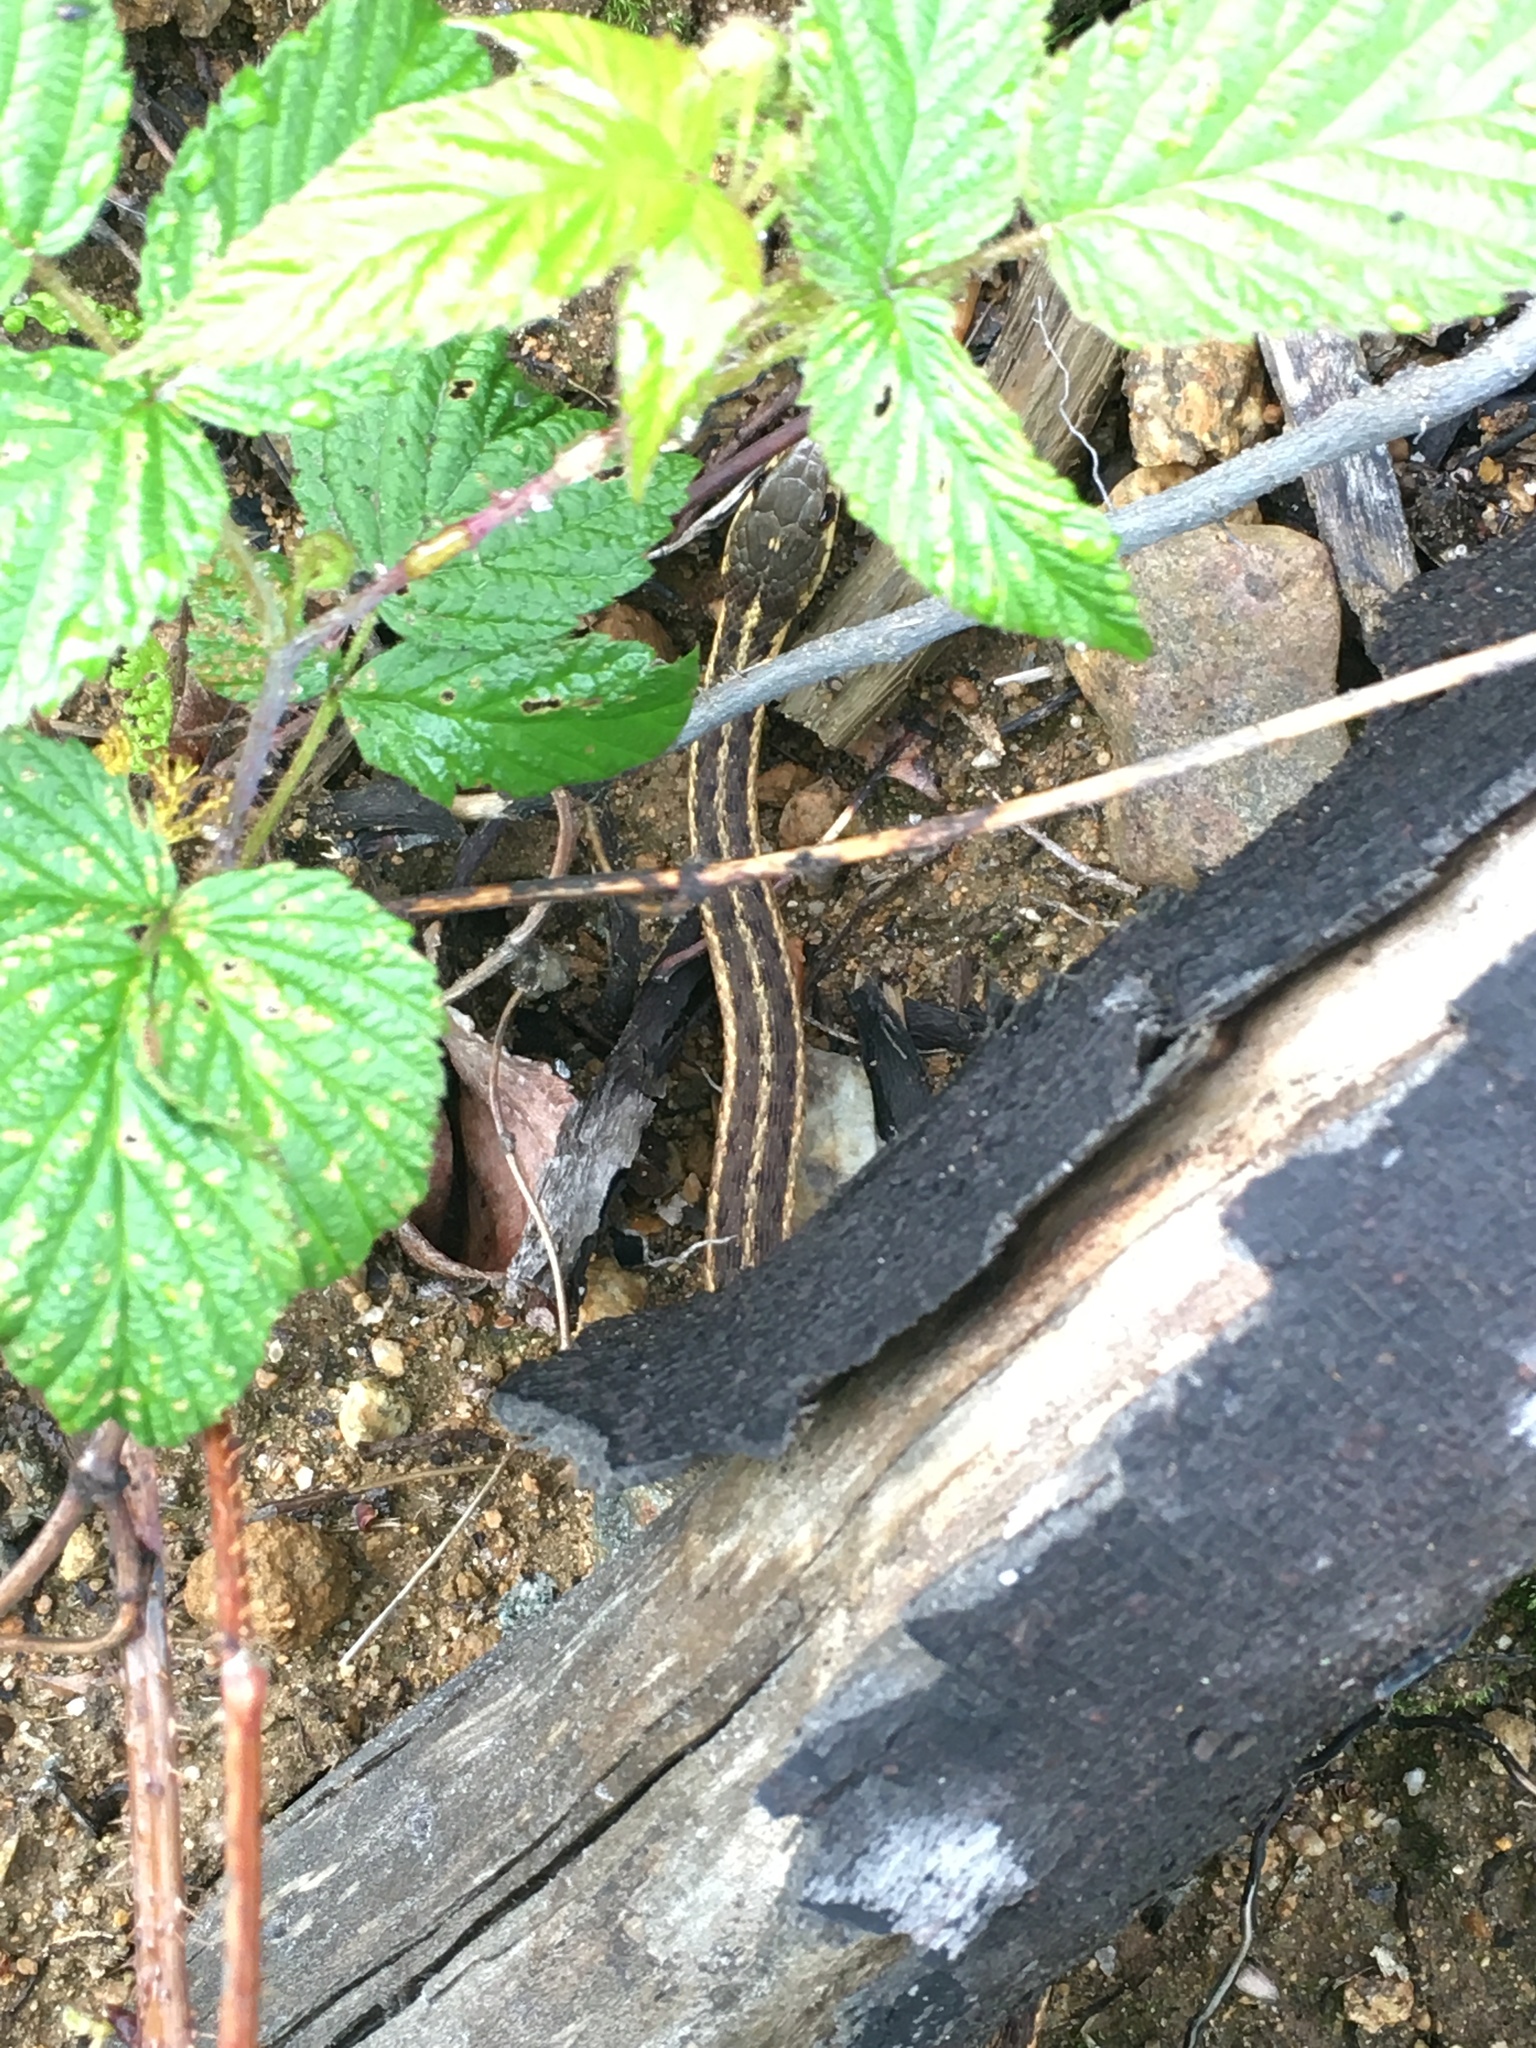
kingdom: Animalia
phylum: Chordata
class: Squamata
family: Colubridae
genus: Thamnophis
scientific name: Thamnophis sirtalis
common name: Common garter snake
